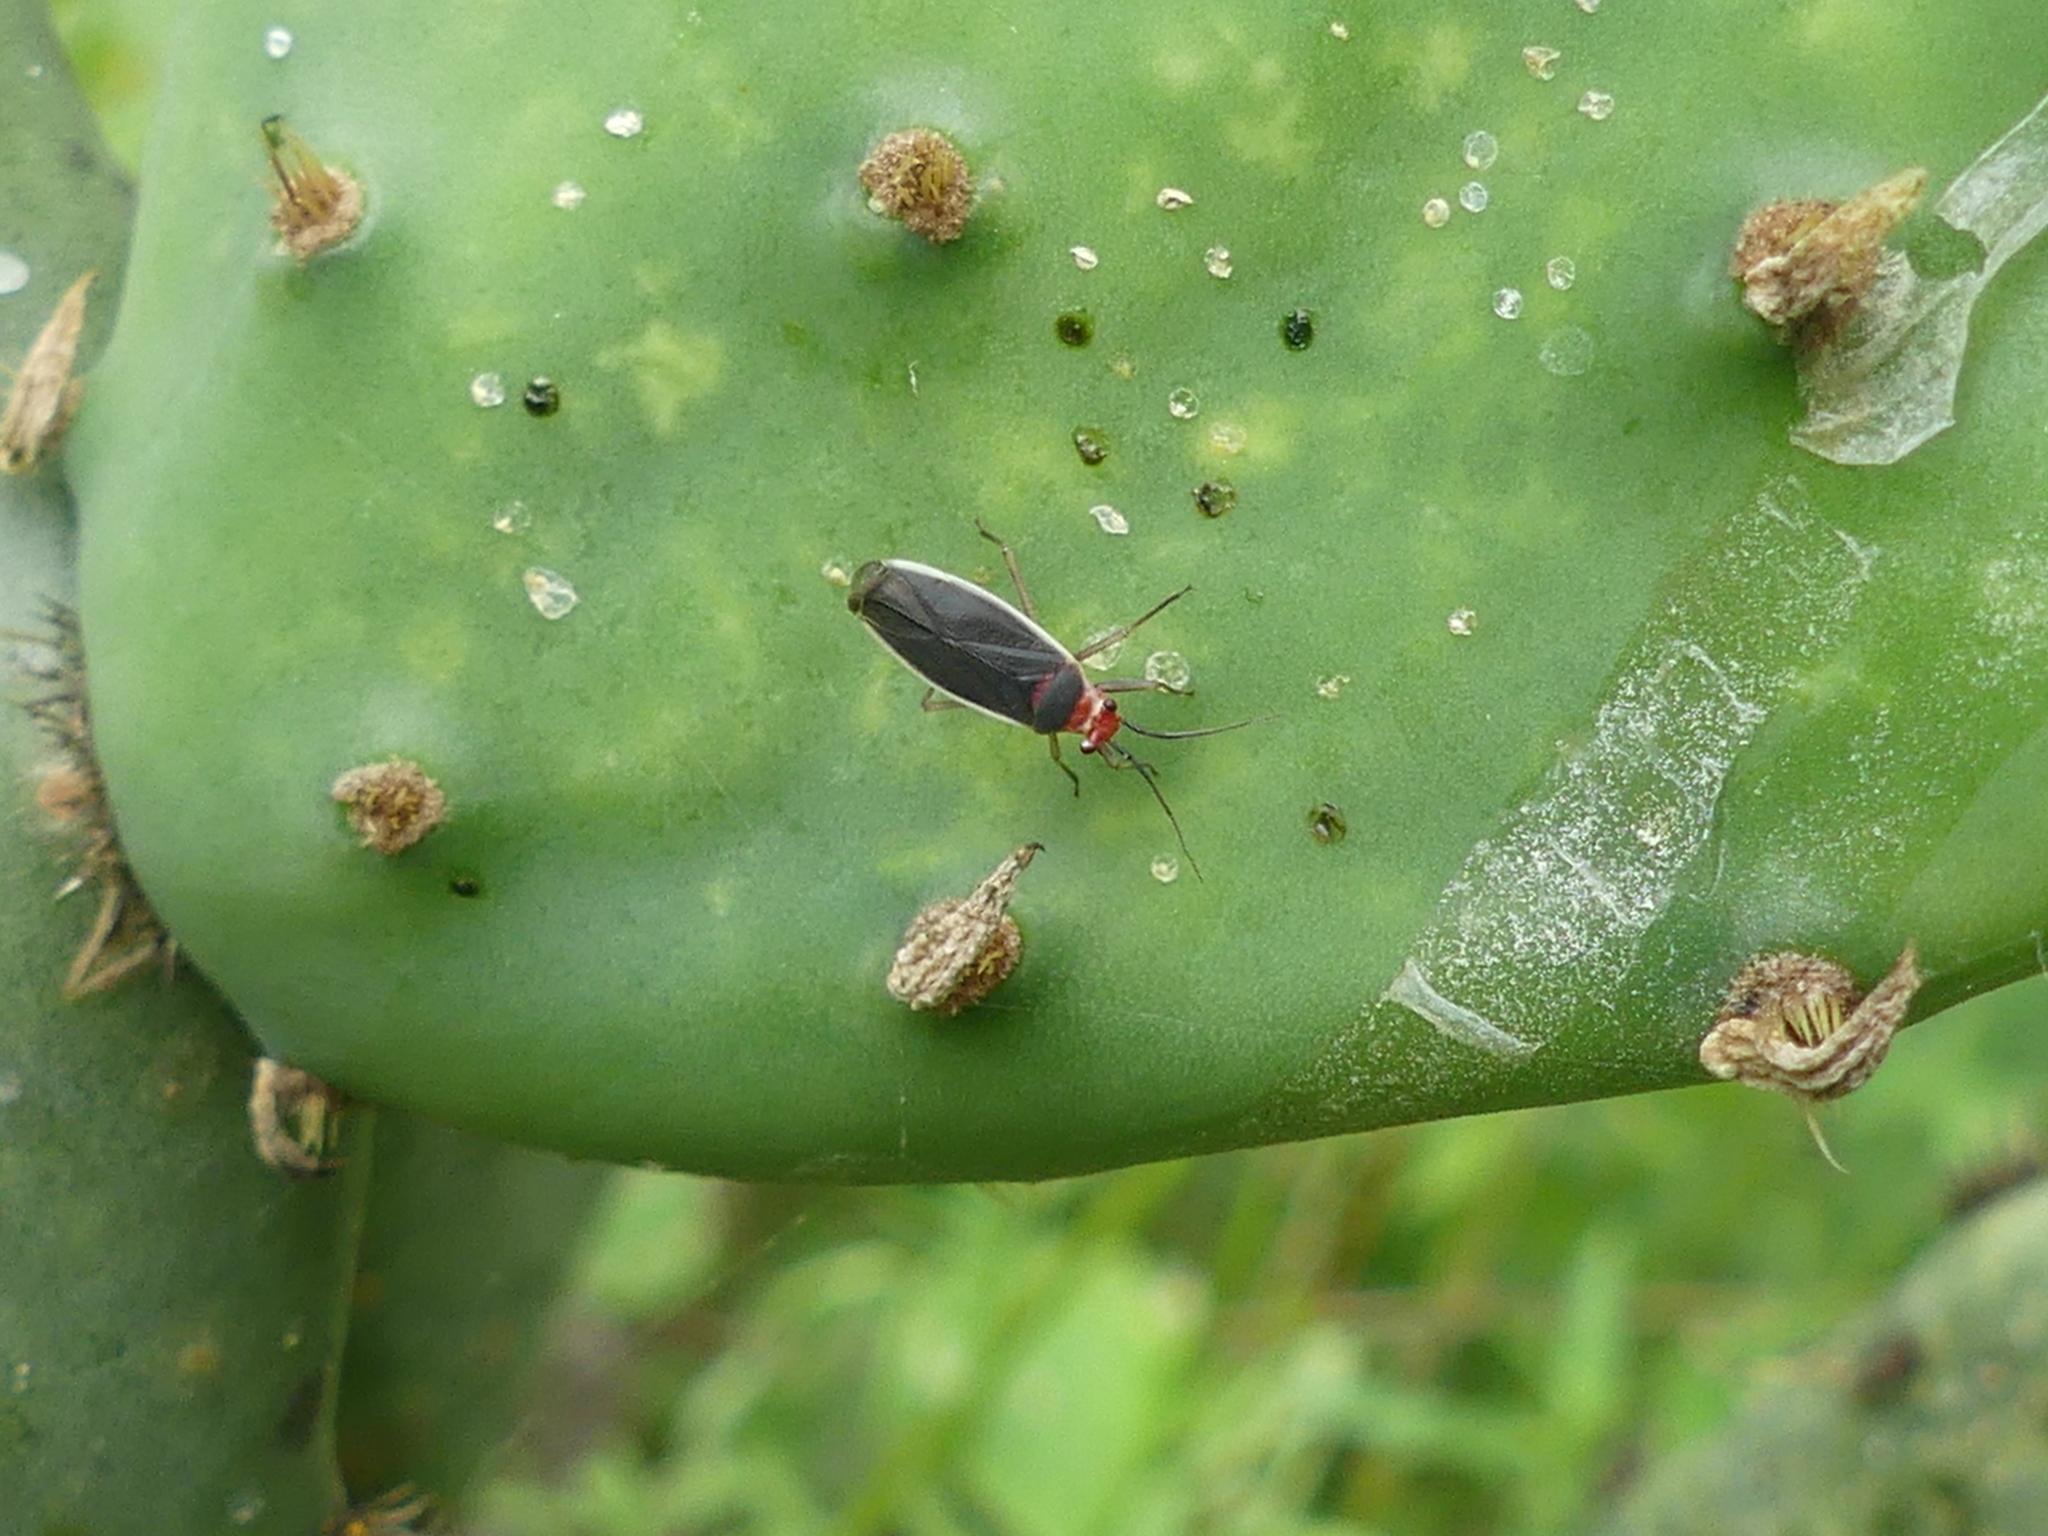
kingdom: Animalia
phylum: Arthropoda
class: Insecta
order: Hemiptera
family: Miridae
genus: Hesperolabops
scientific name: Hesperolabops gelastops
